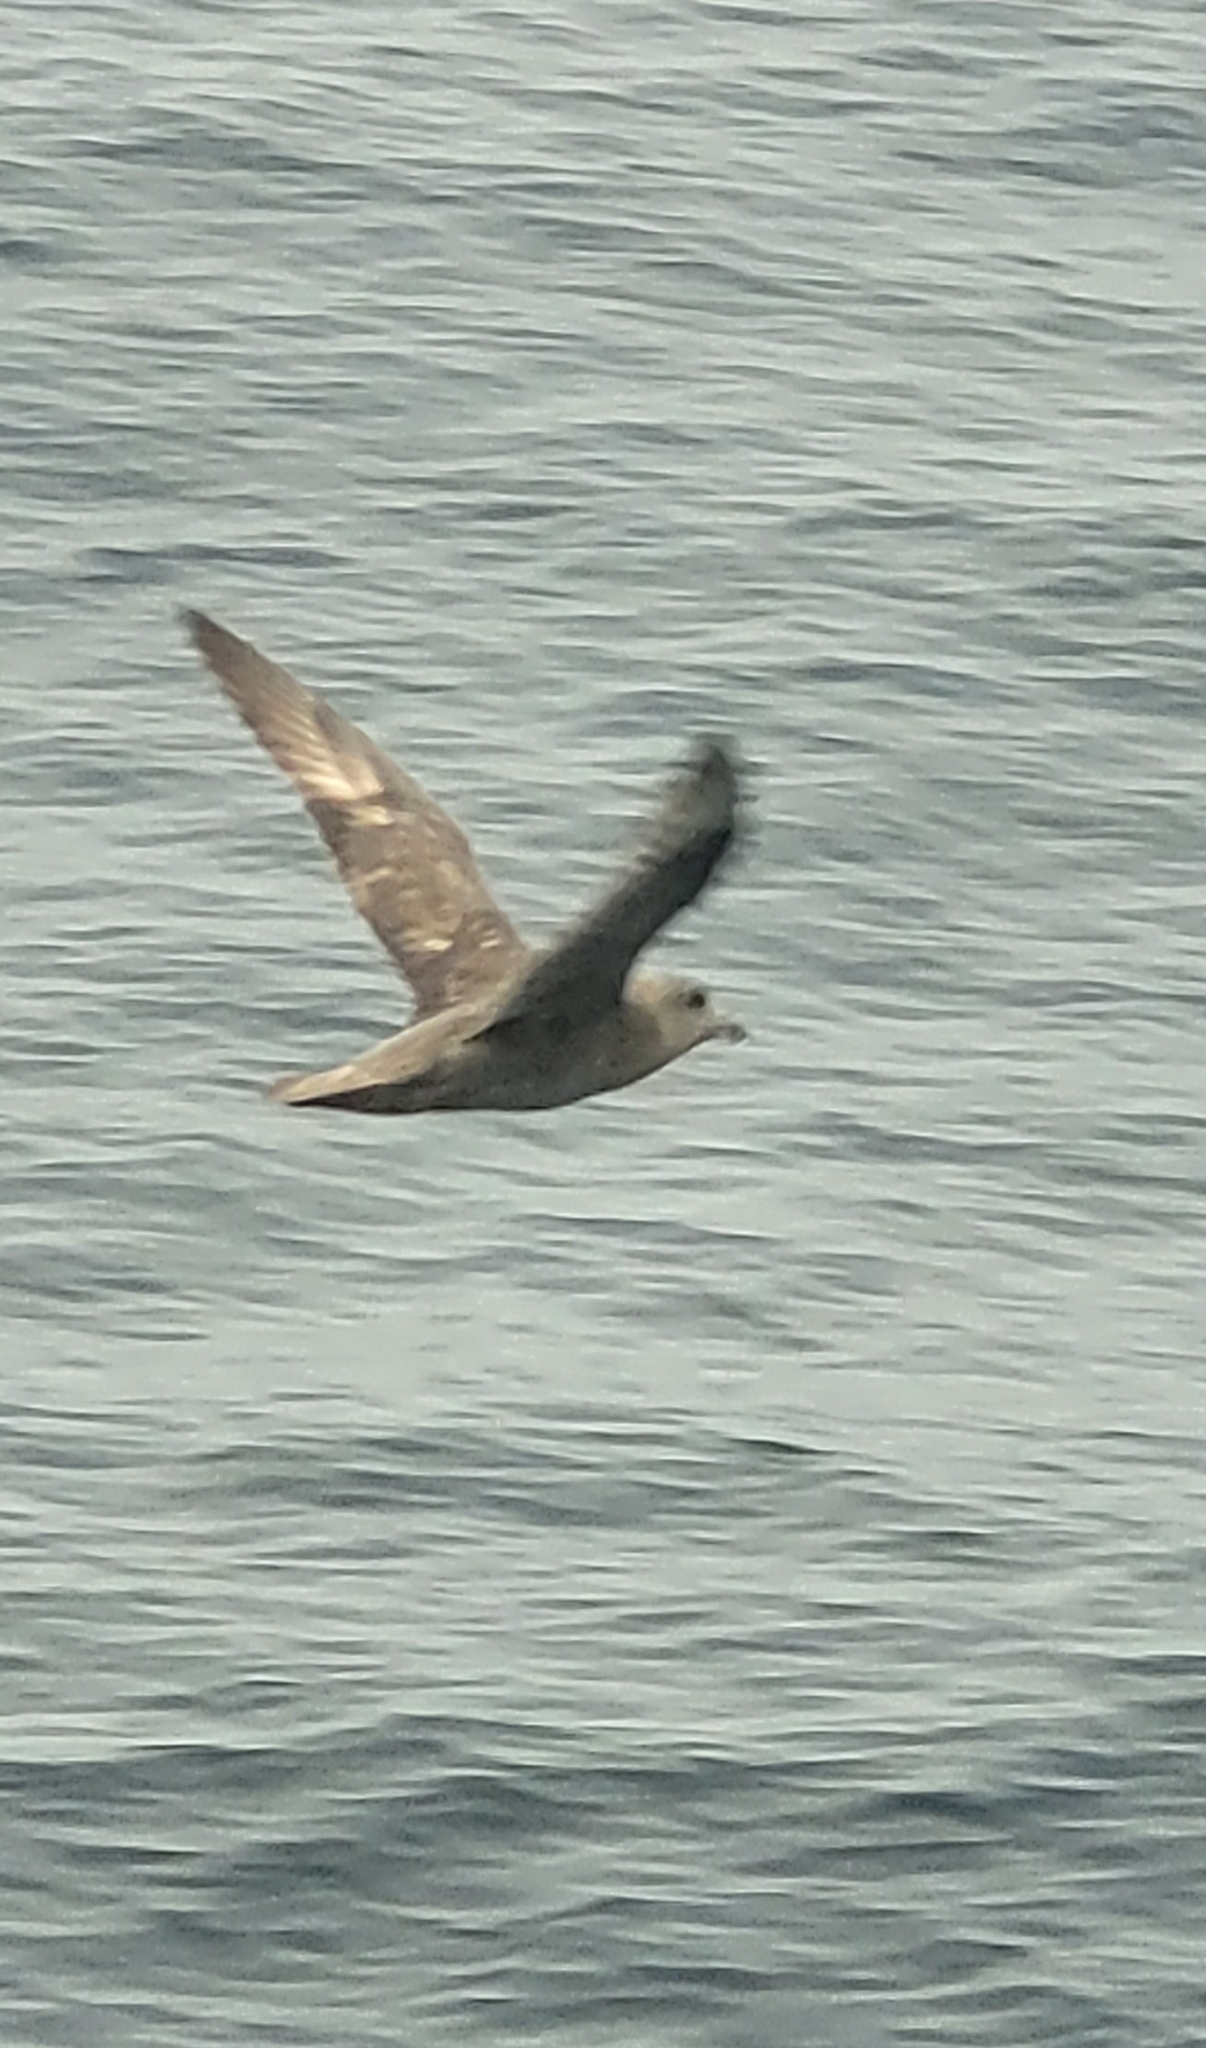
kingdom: Animalia
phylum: Chordata
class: Aves
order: Procellariiformes
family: Procellariidae
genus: Fulmarus
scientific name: Fulmarus glacialis
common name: Northern fulmar
